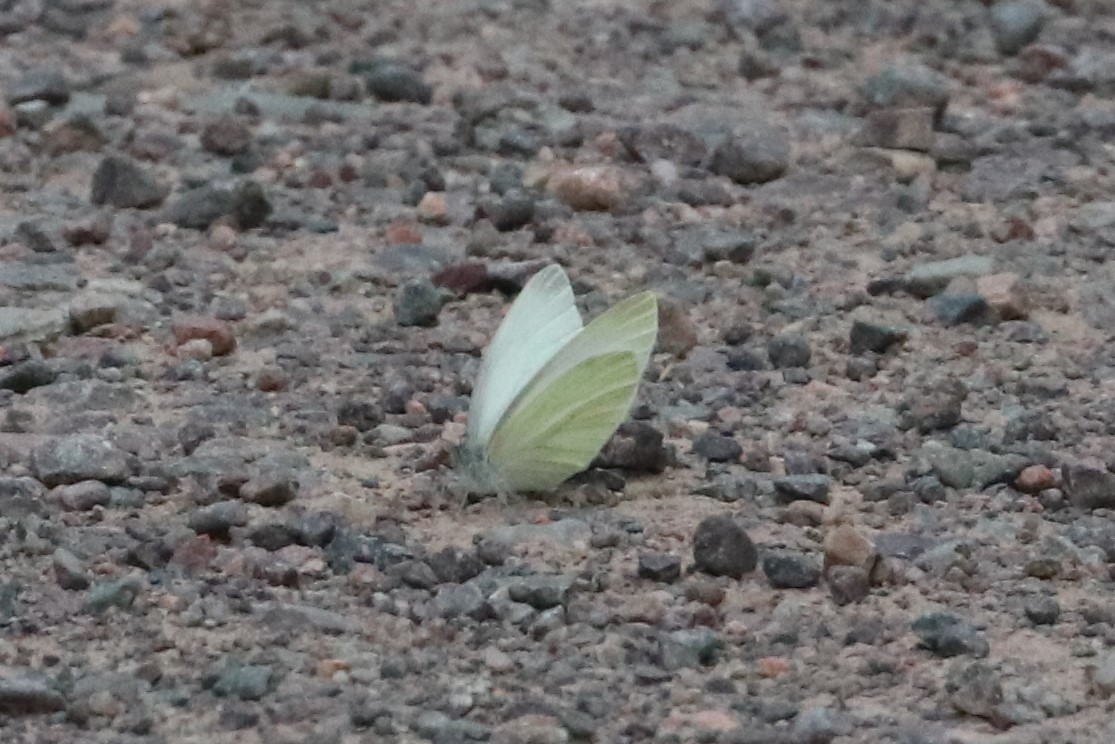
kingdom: Animalia
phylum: Arthropoda
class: Insecta
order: Lepidoptera
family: Pieridae
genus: Pieris
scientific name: Pieris oleracea
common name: Mustard white
